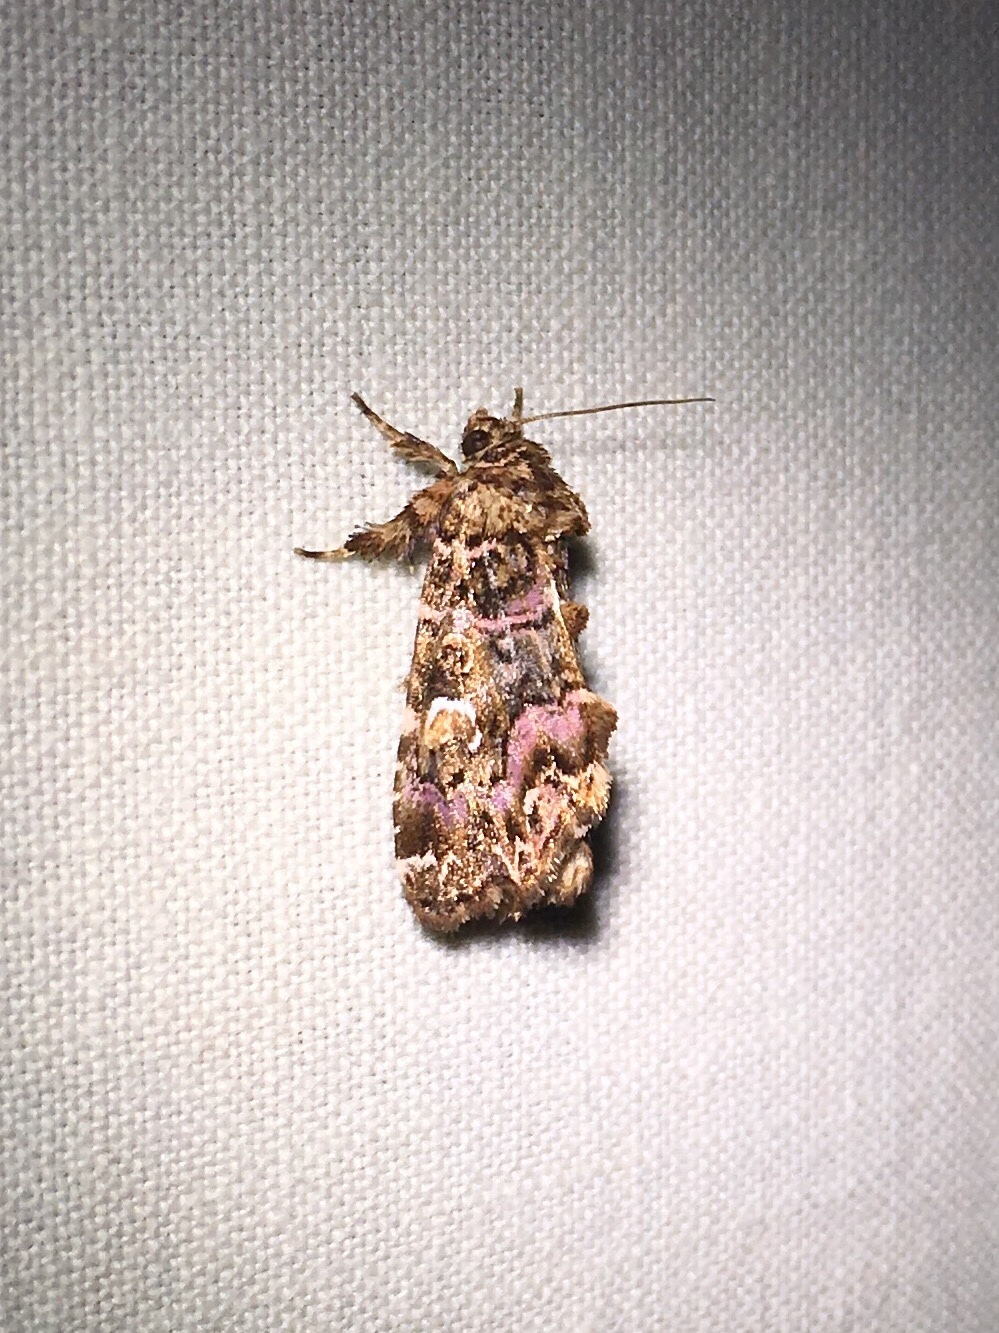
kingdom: Animalia
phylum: Arthropoda
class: Insecta
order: Lepidoptera
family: Noctuidae
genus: Callopistria
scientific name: Callopistria mollissima
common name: Pink-shaded fern moth
